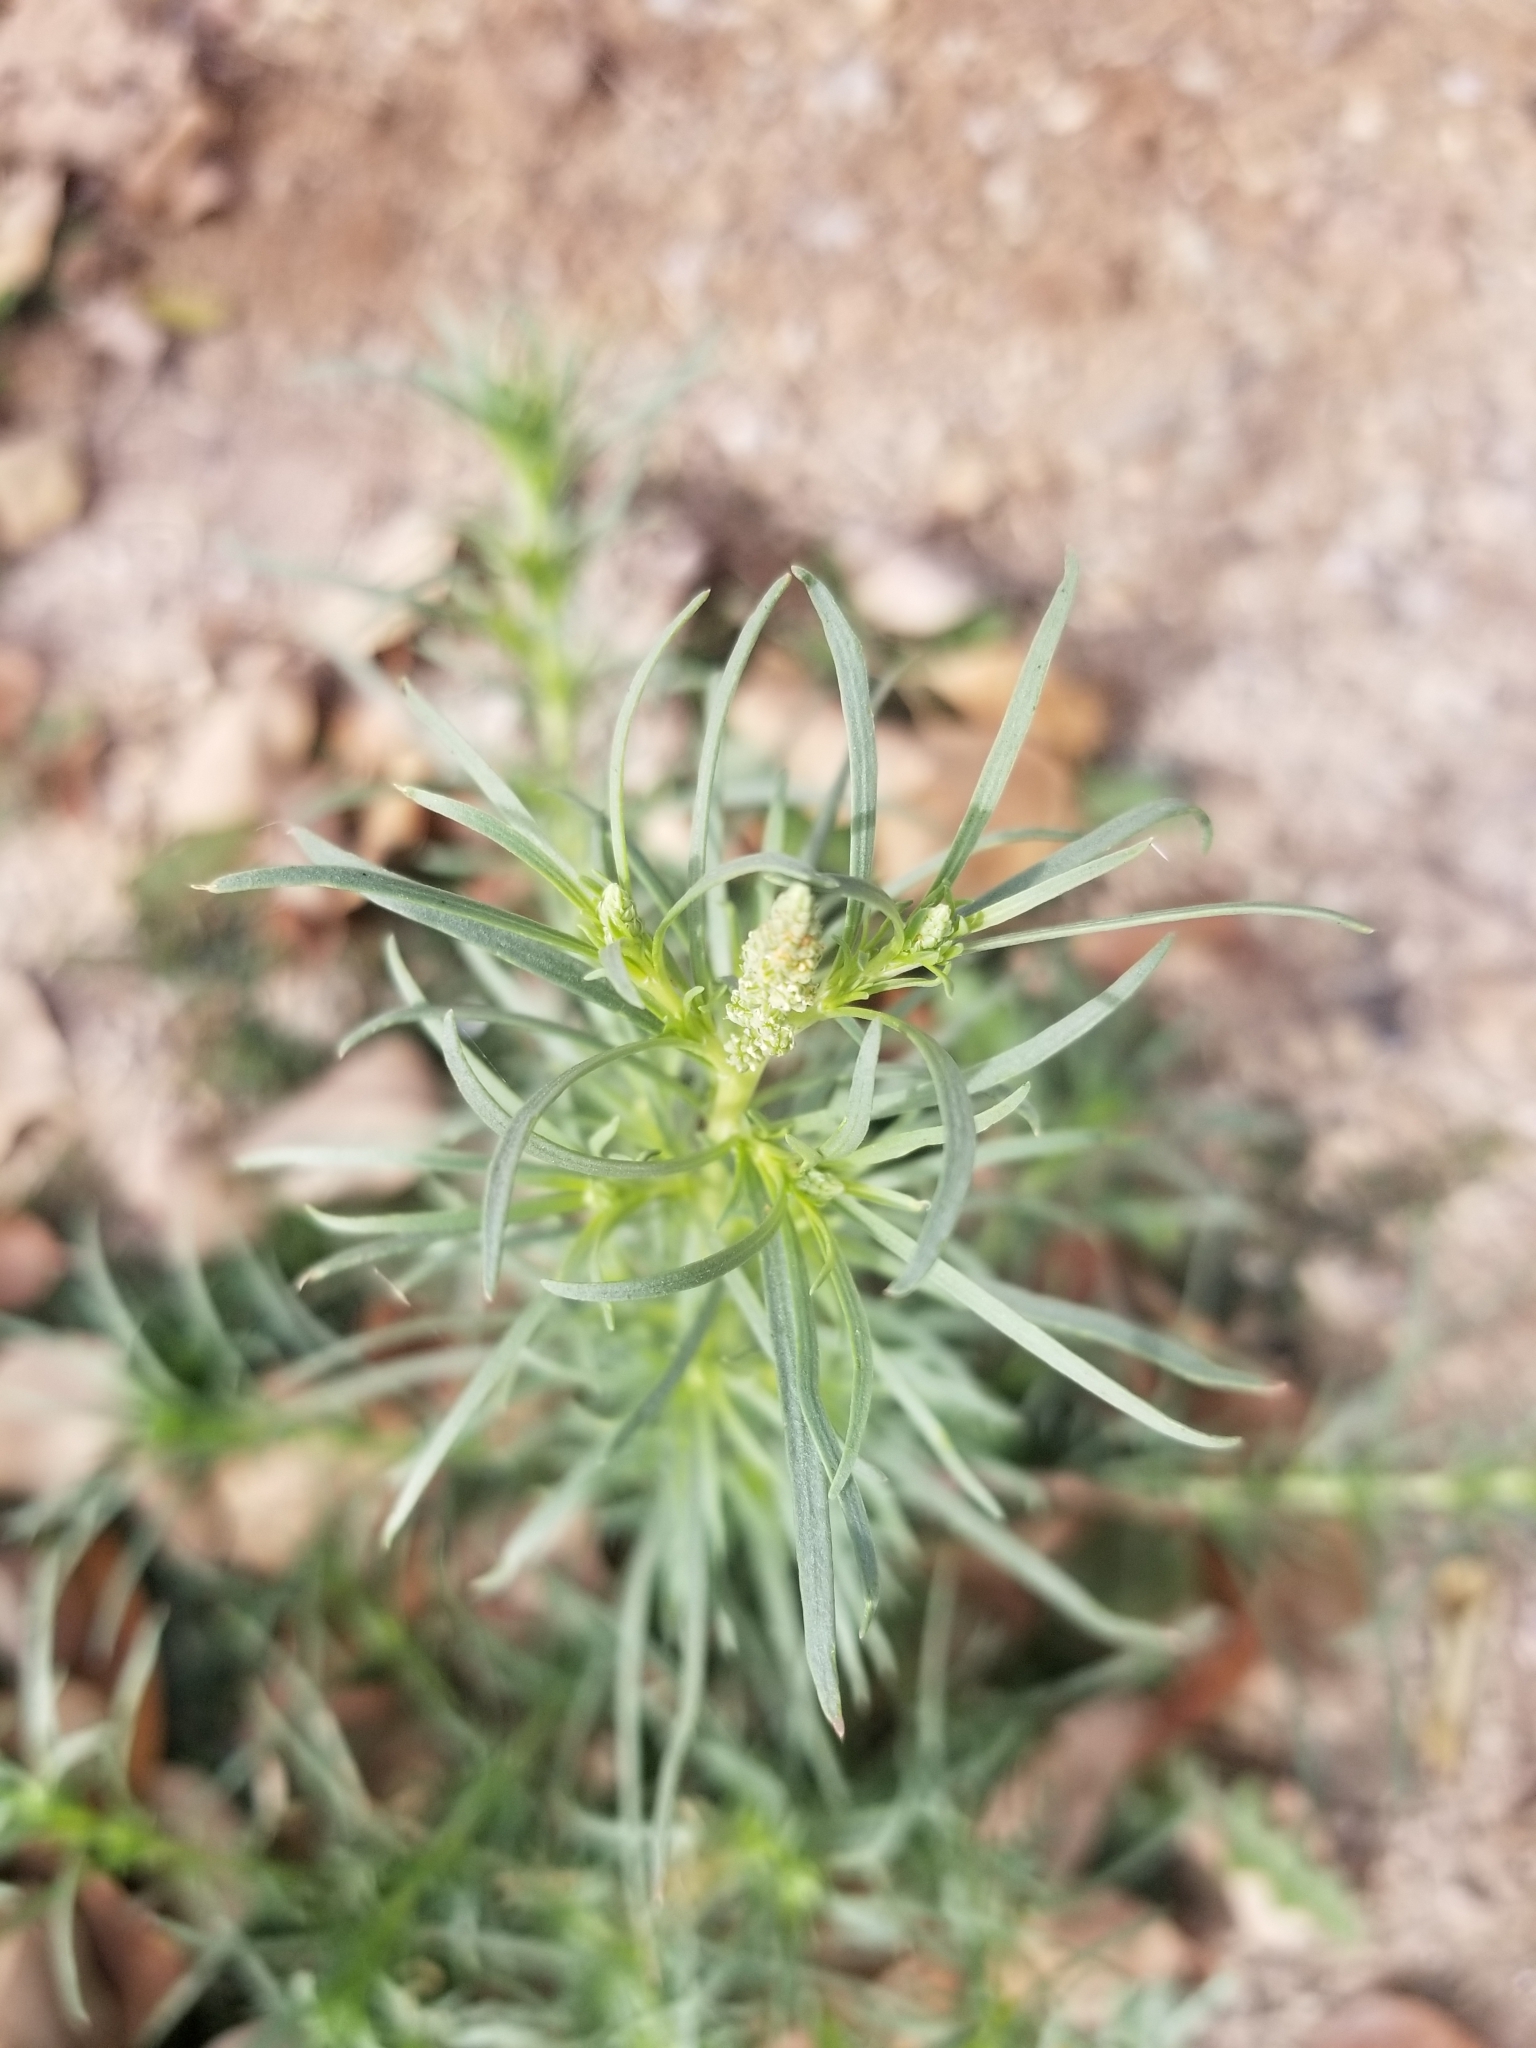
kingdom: Plantae
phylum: Tracheophyta
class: Magnoliopsida
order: Brassicales
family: Resedaceae
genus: Oligomeris
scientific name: Oligomeris linifolia
